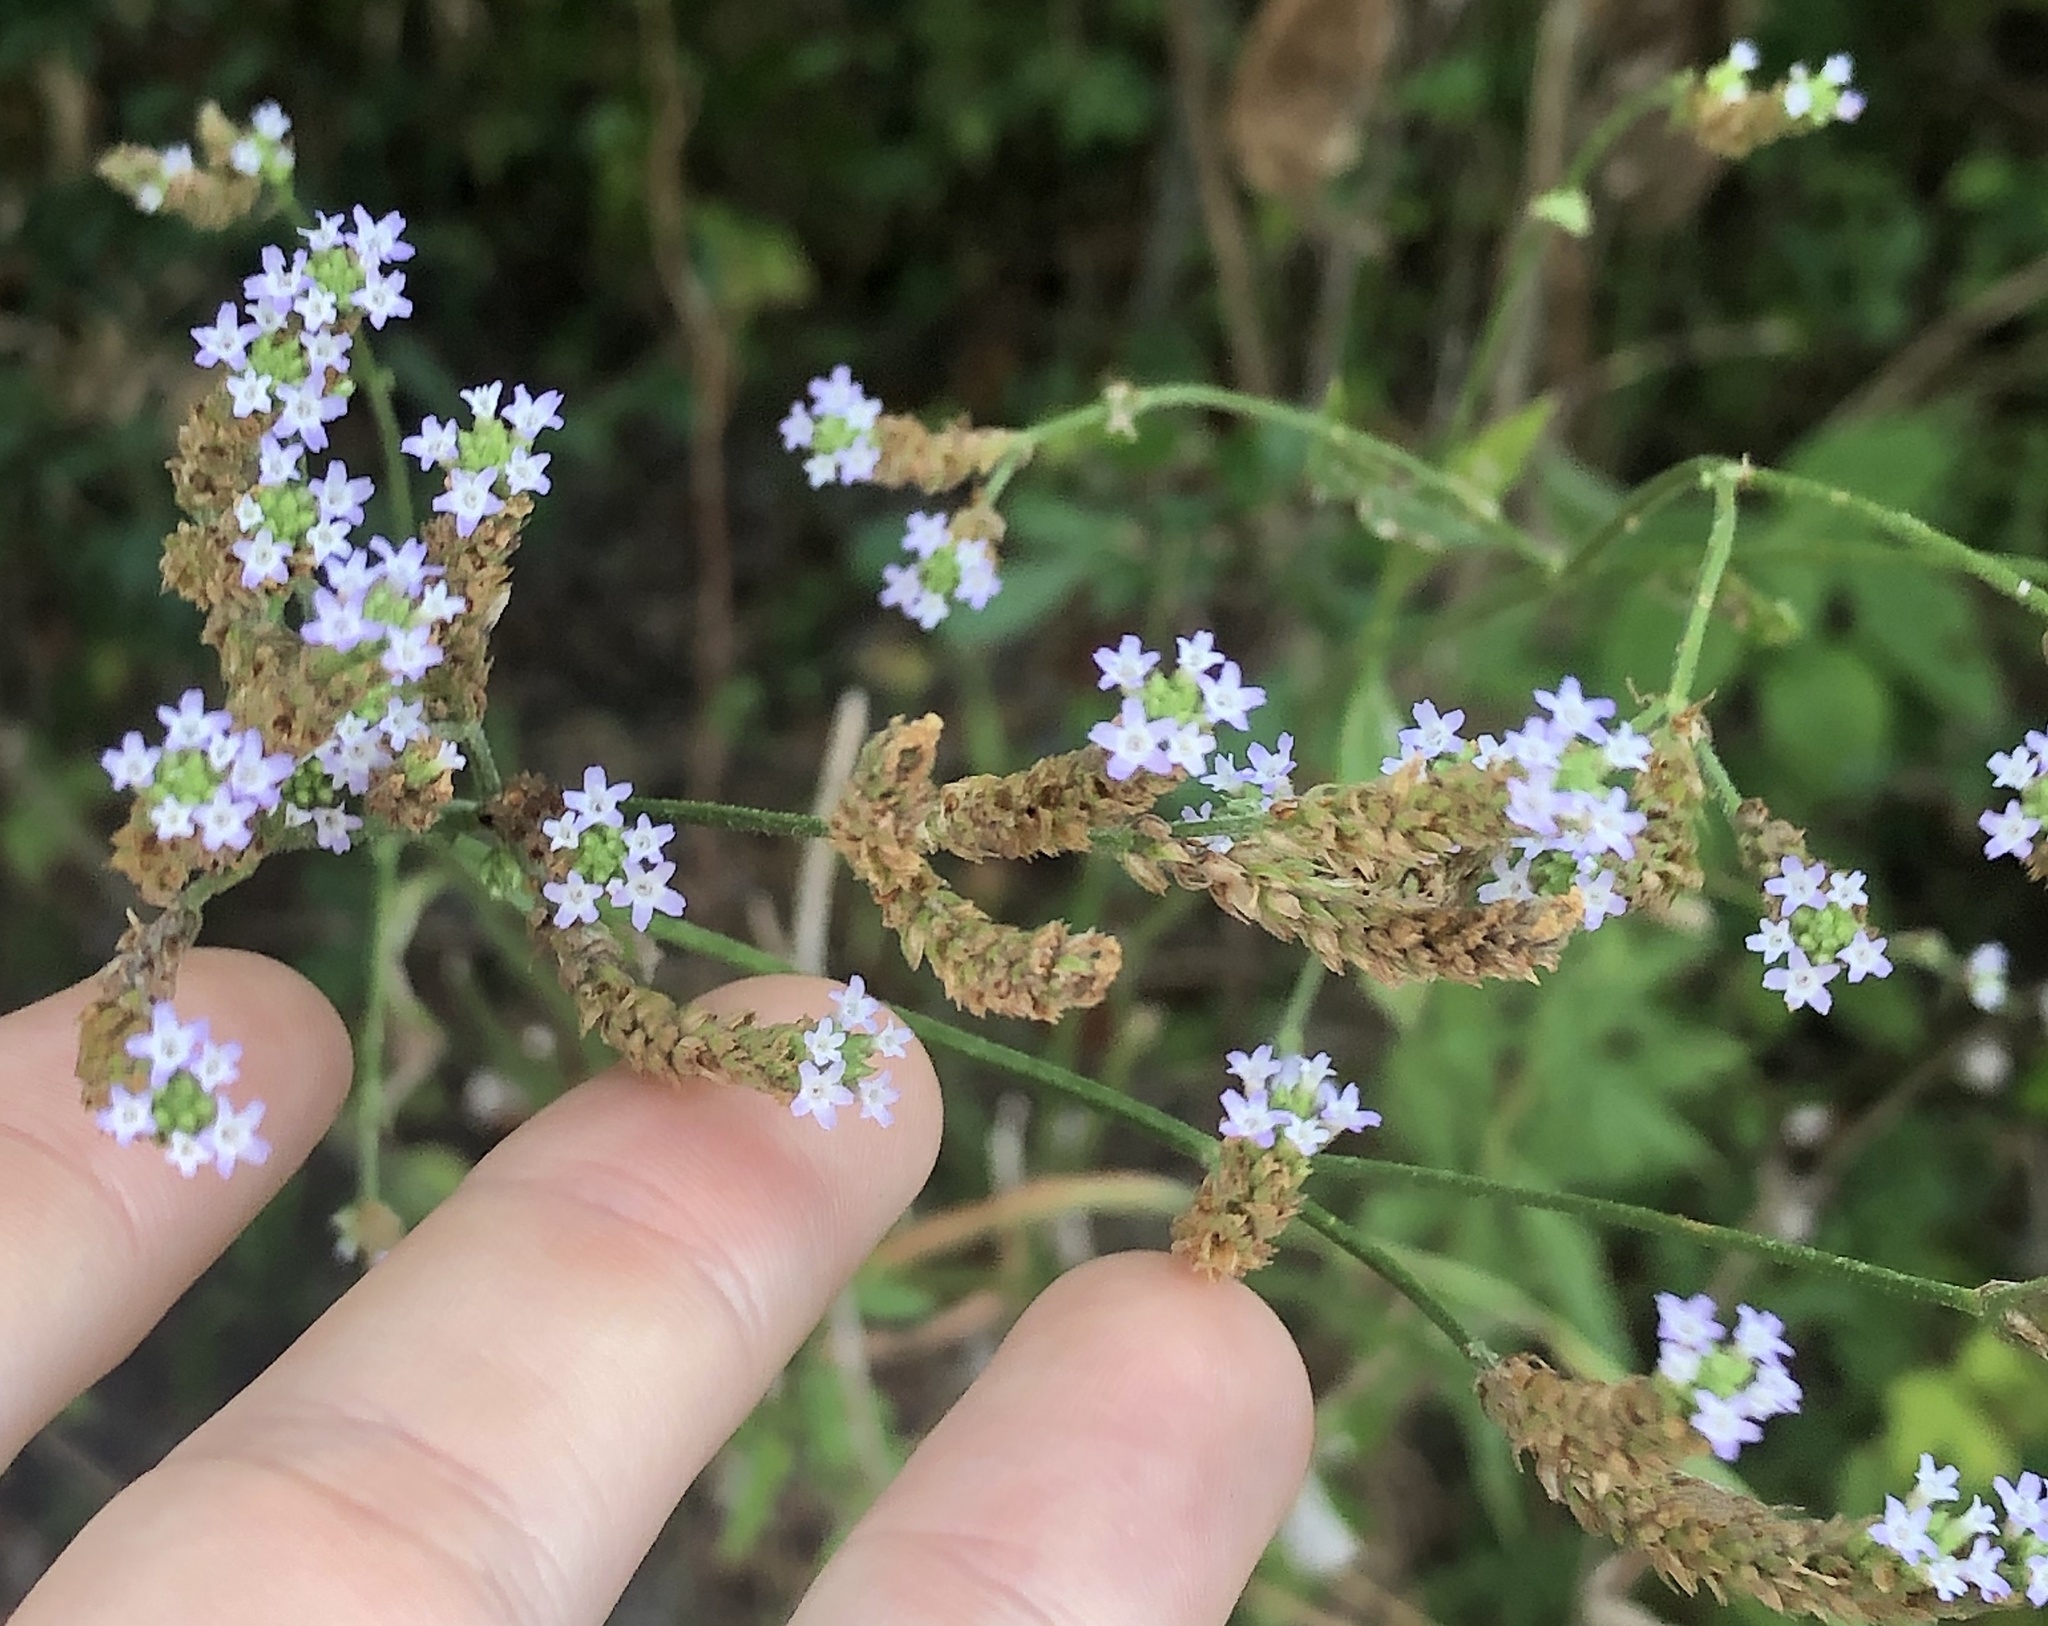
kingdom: Plantae
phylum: Tracheophyta
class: Magnoliopsida
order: Lamiales
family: Verbenaceae
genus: Verbena
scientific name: Verbena brasiliensis
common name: Brazilian vervain
